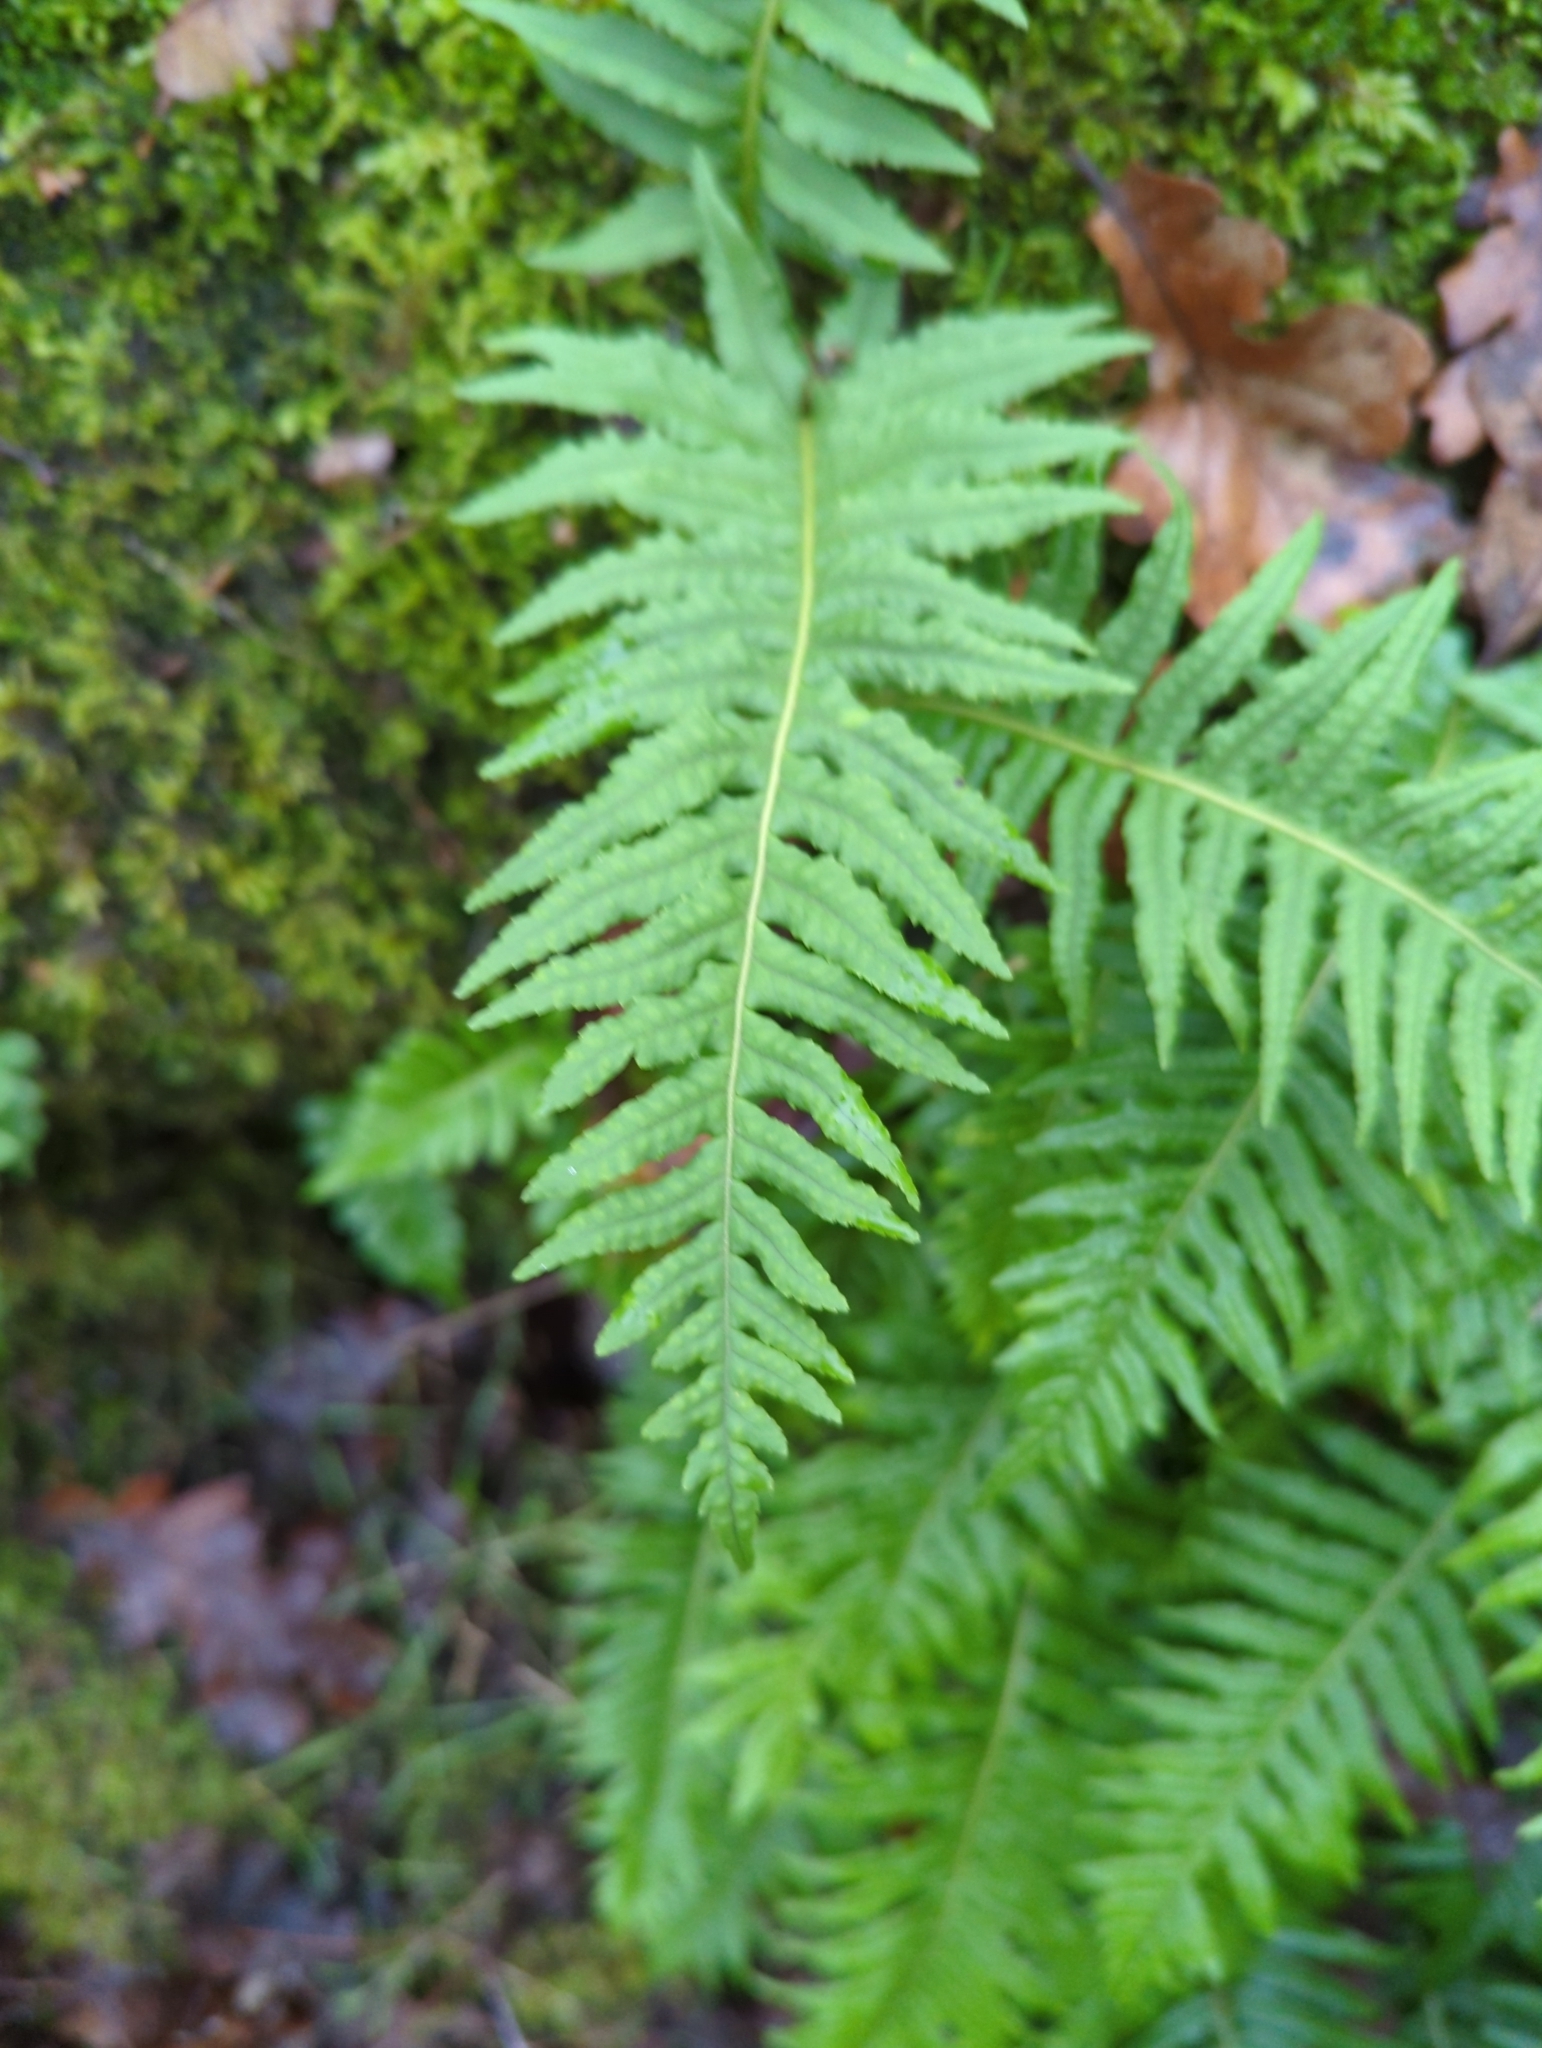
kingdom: Plantae
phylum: Tracheophyta
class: Polypodiopsida
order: Polypodiales
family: Polypodiaceae
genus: Polypodium
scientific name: Polypodium glycyrrhiza
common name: Licorice fern
